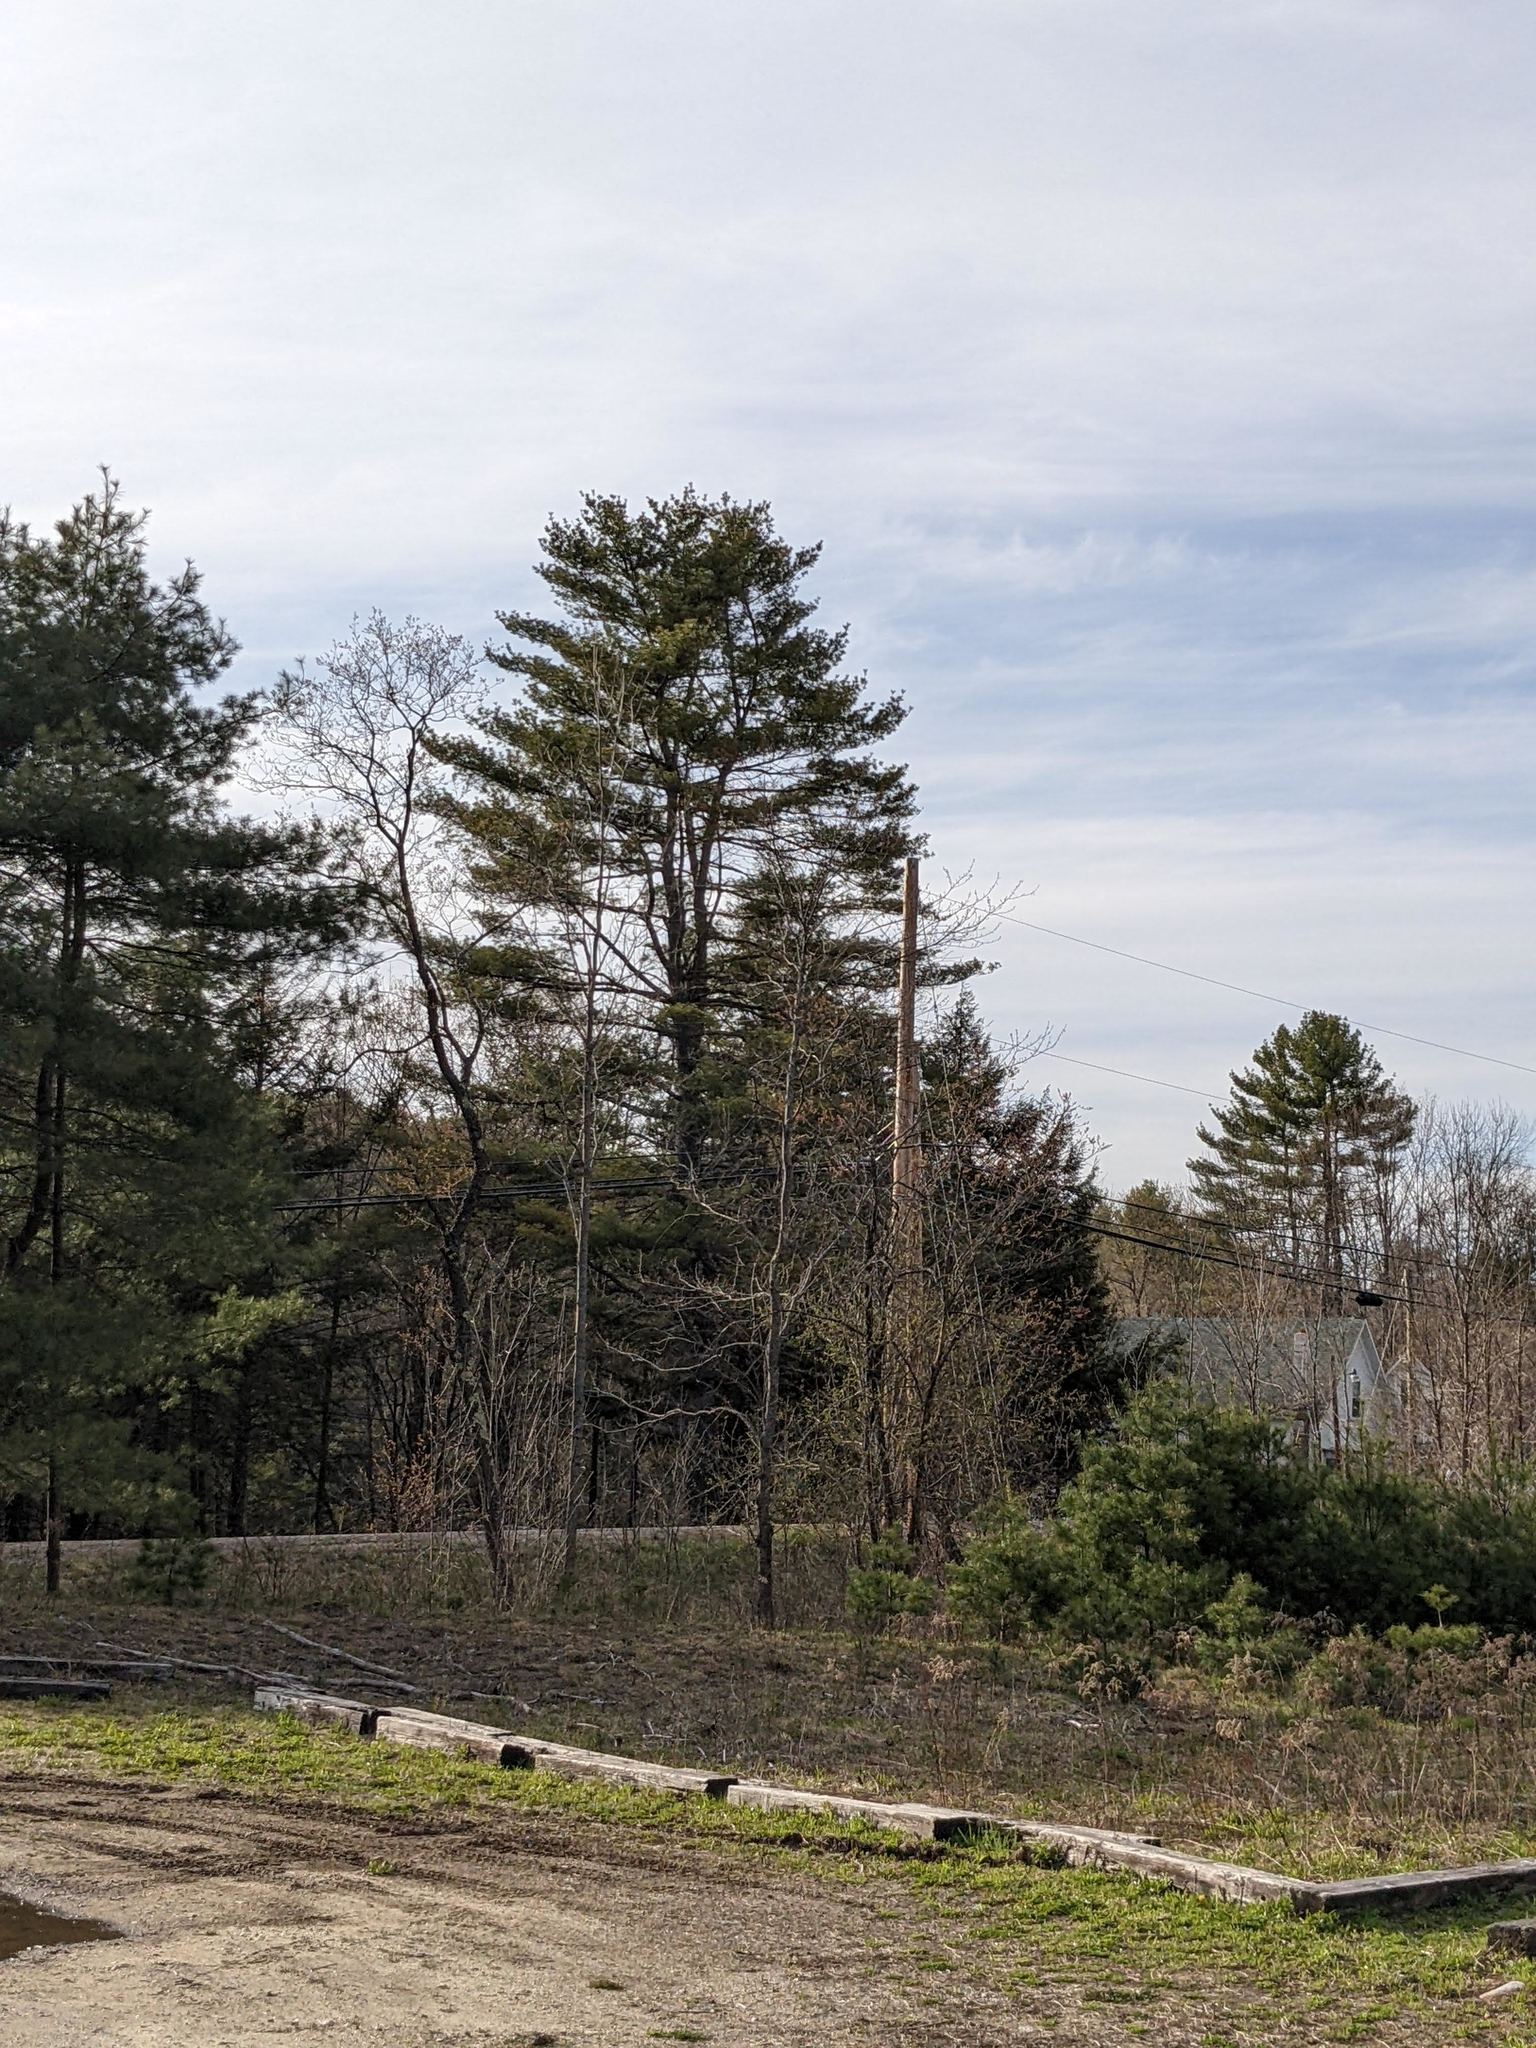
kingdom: Plantae
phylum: Tracheophyta
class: Pinopsida
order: Pinales
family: Pinaceae
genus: Pinus
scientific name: Pinus strobus
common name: Weymouth pine
